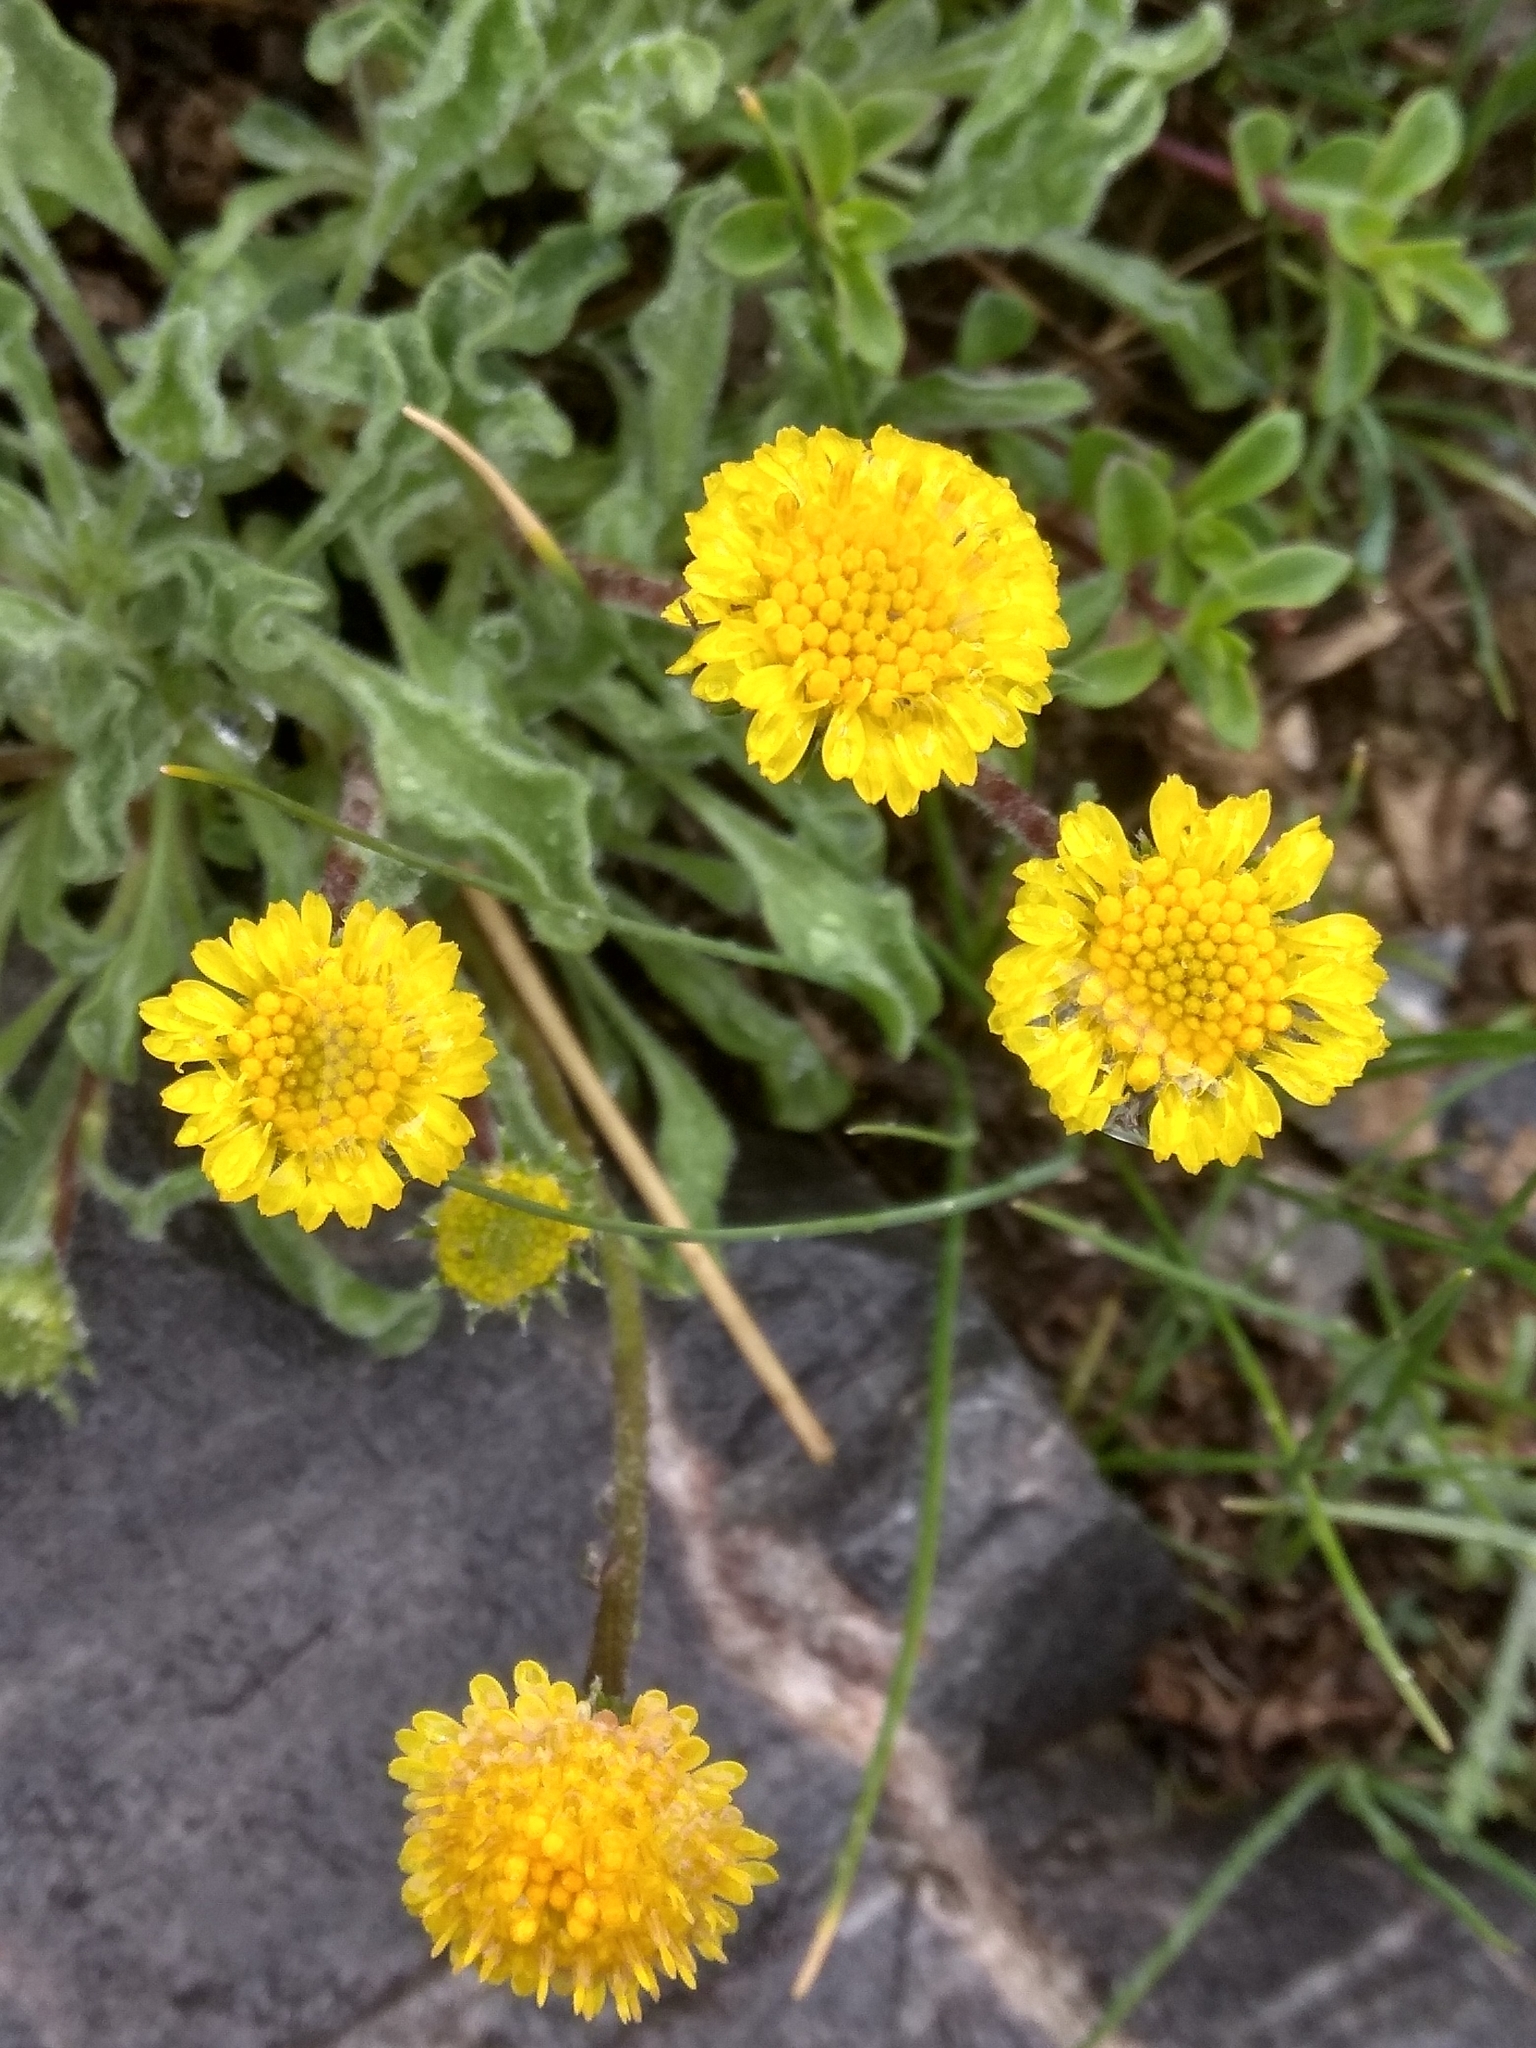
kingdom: Plantae
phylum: Tracheophyta
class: Magnoliopsida
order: Asterales
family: Asteraceae
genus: Psychrogeton
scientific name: Psychrogeton cabulicus
